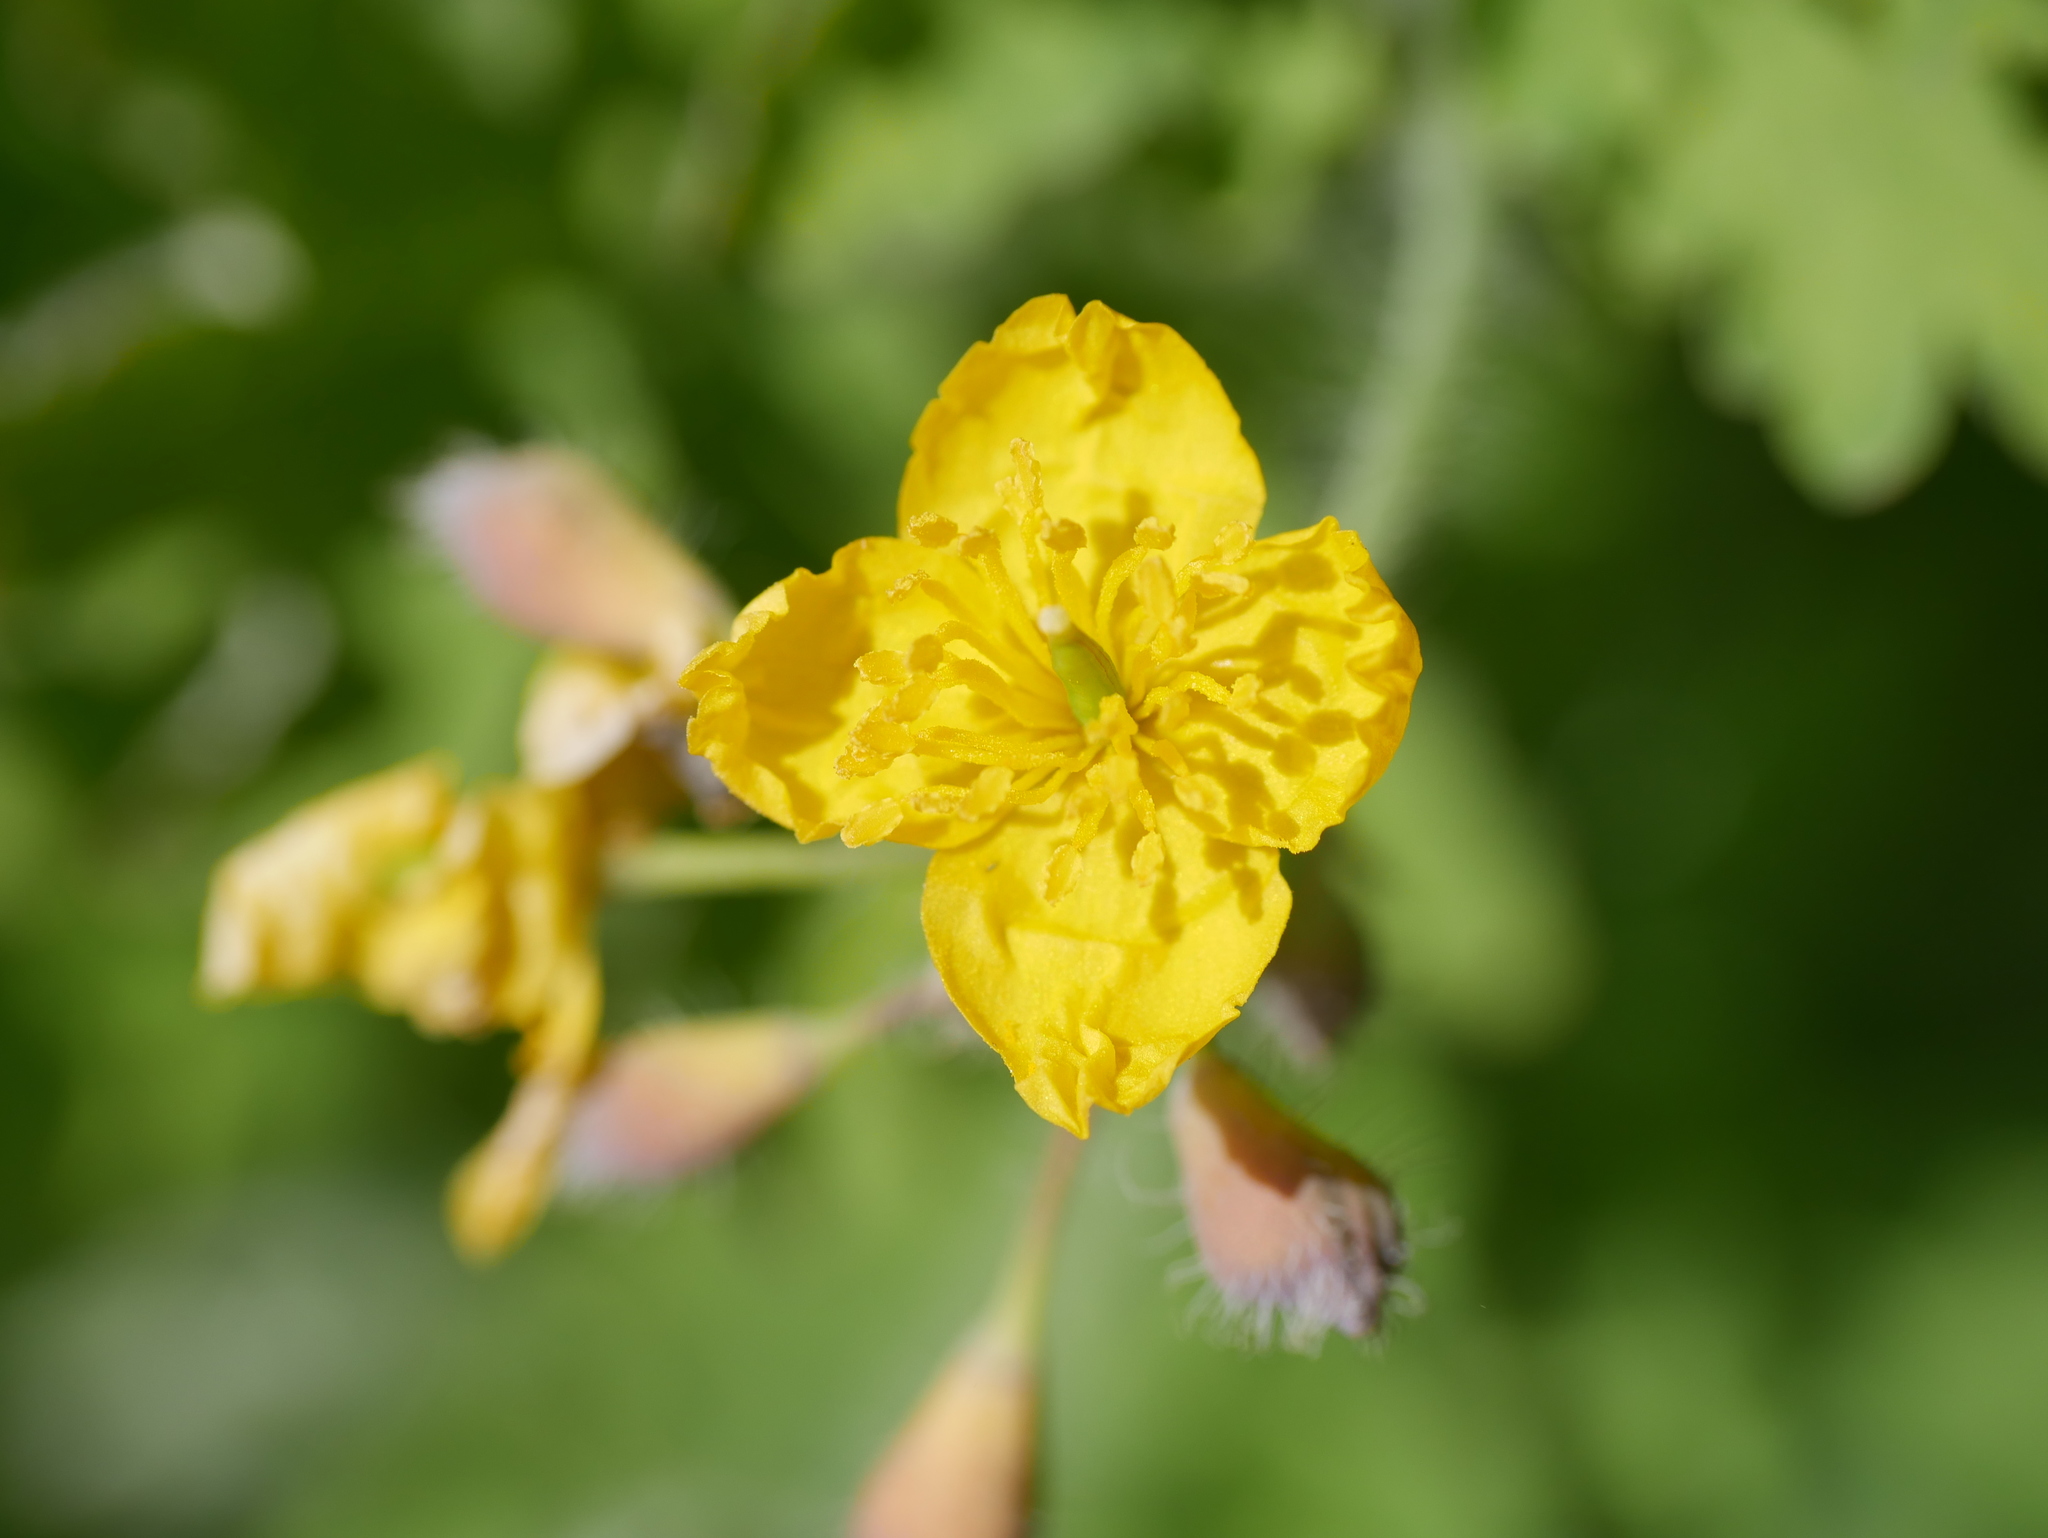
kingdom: Plantae
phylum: Tracheophyta
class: Magnoliopsida
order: Ranunculales
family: Papaveraceae
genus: Chelidonium
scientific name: Chelidonium majus
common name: Greater celandine
